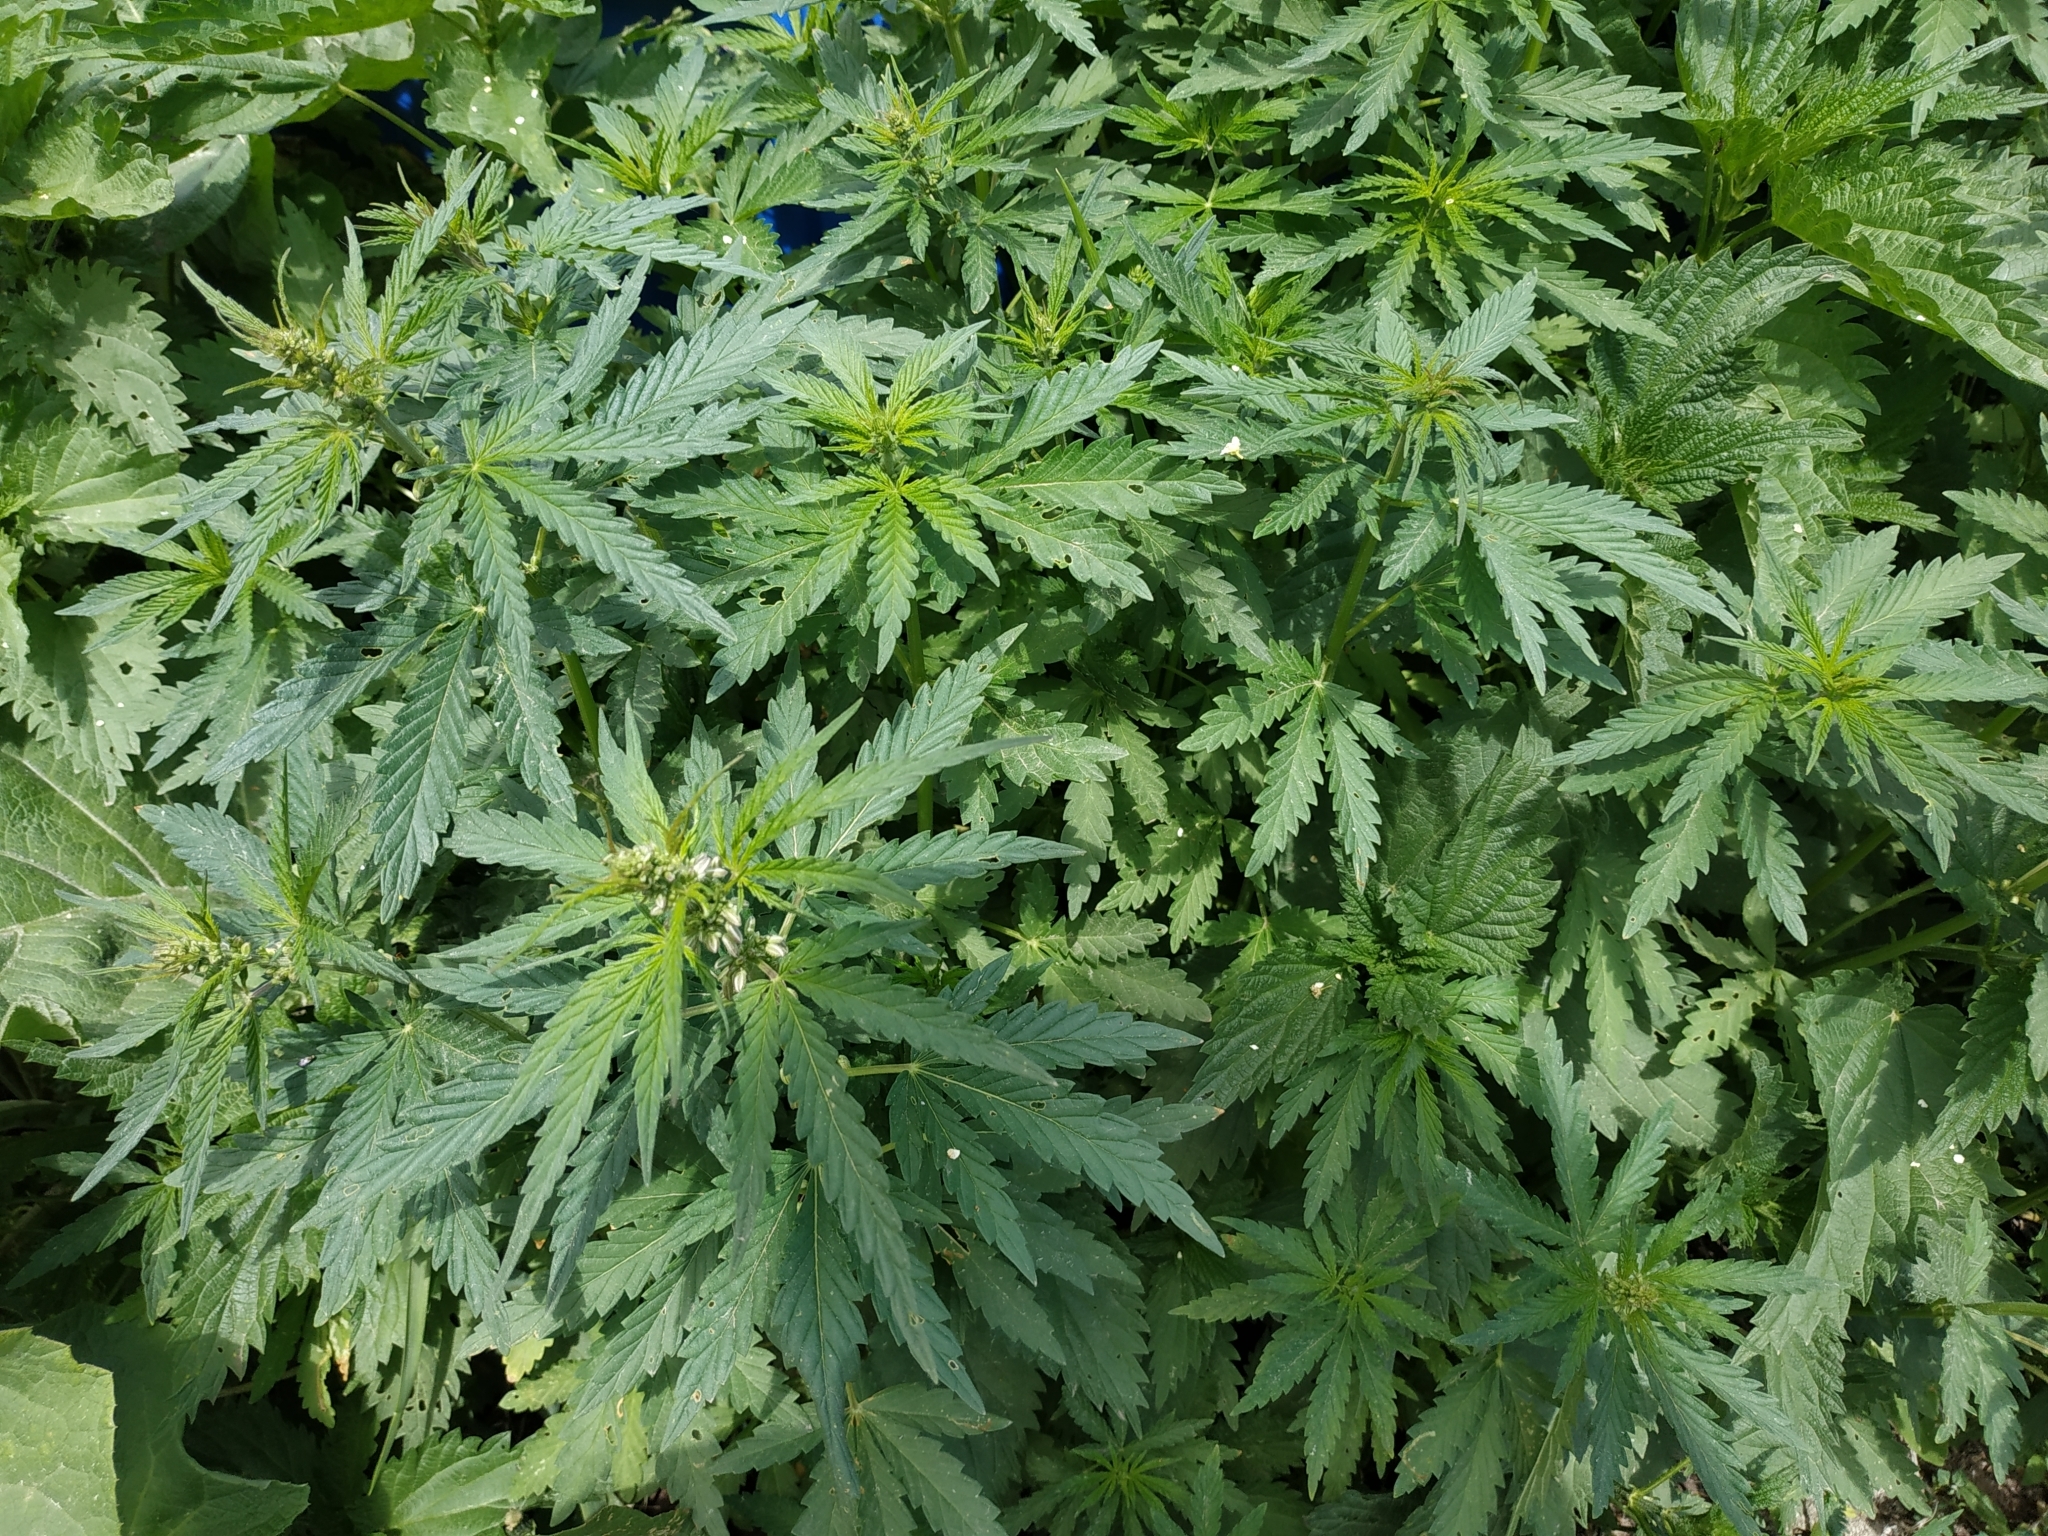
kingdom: Plantae
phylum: Tracheophyta
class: Magnoliopsida
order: Rosales
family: Cannabaceae
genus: Cannabis
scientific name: Cannabis sativa
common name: Hemp
